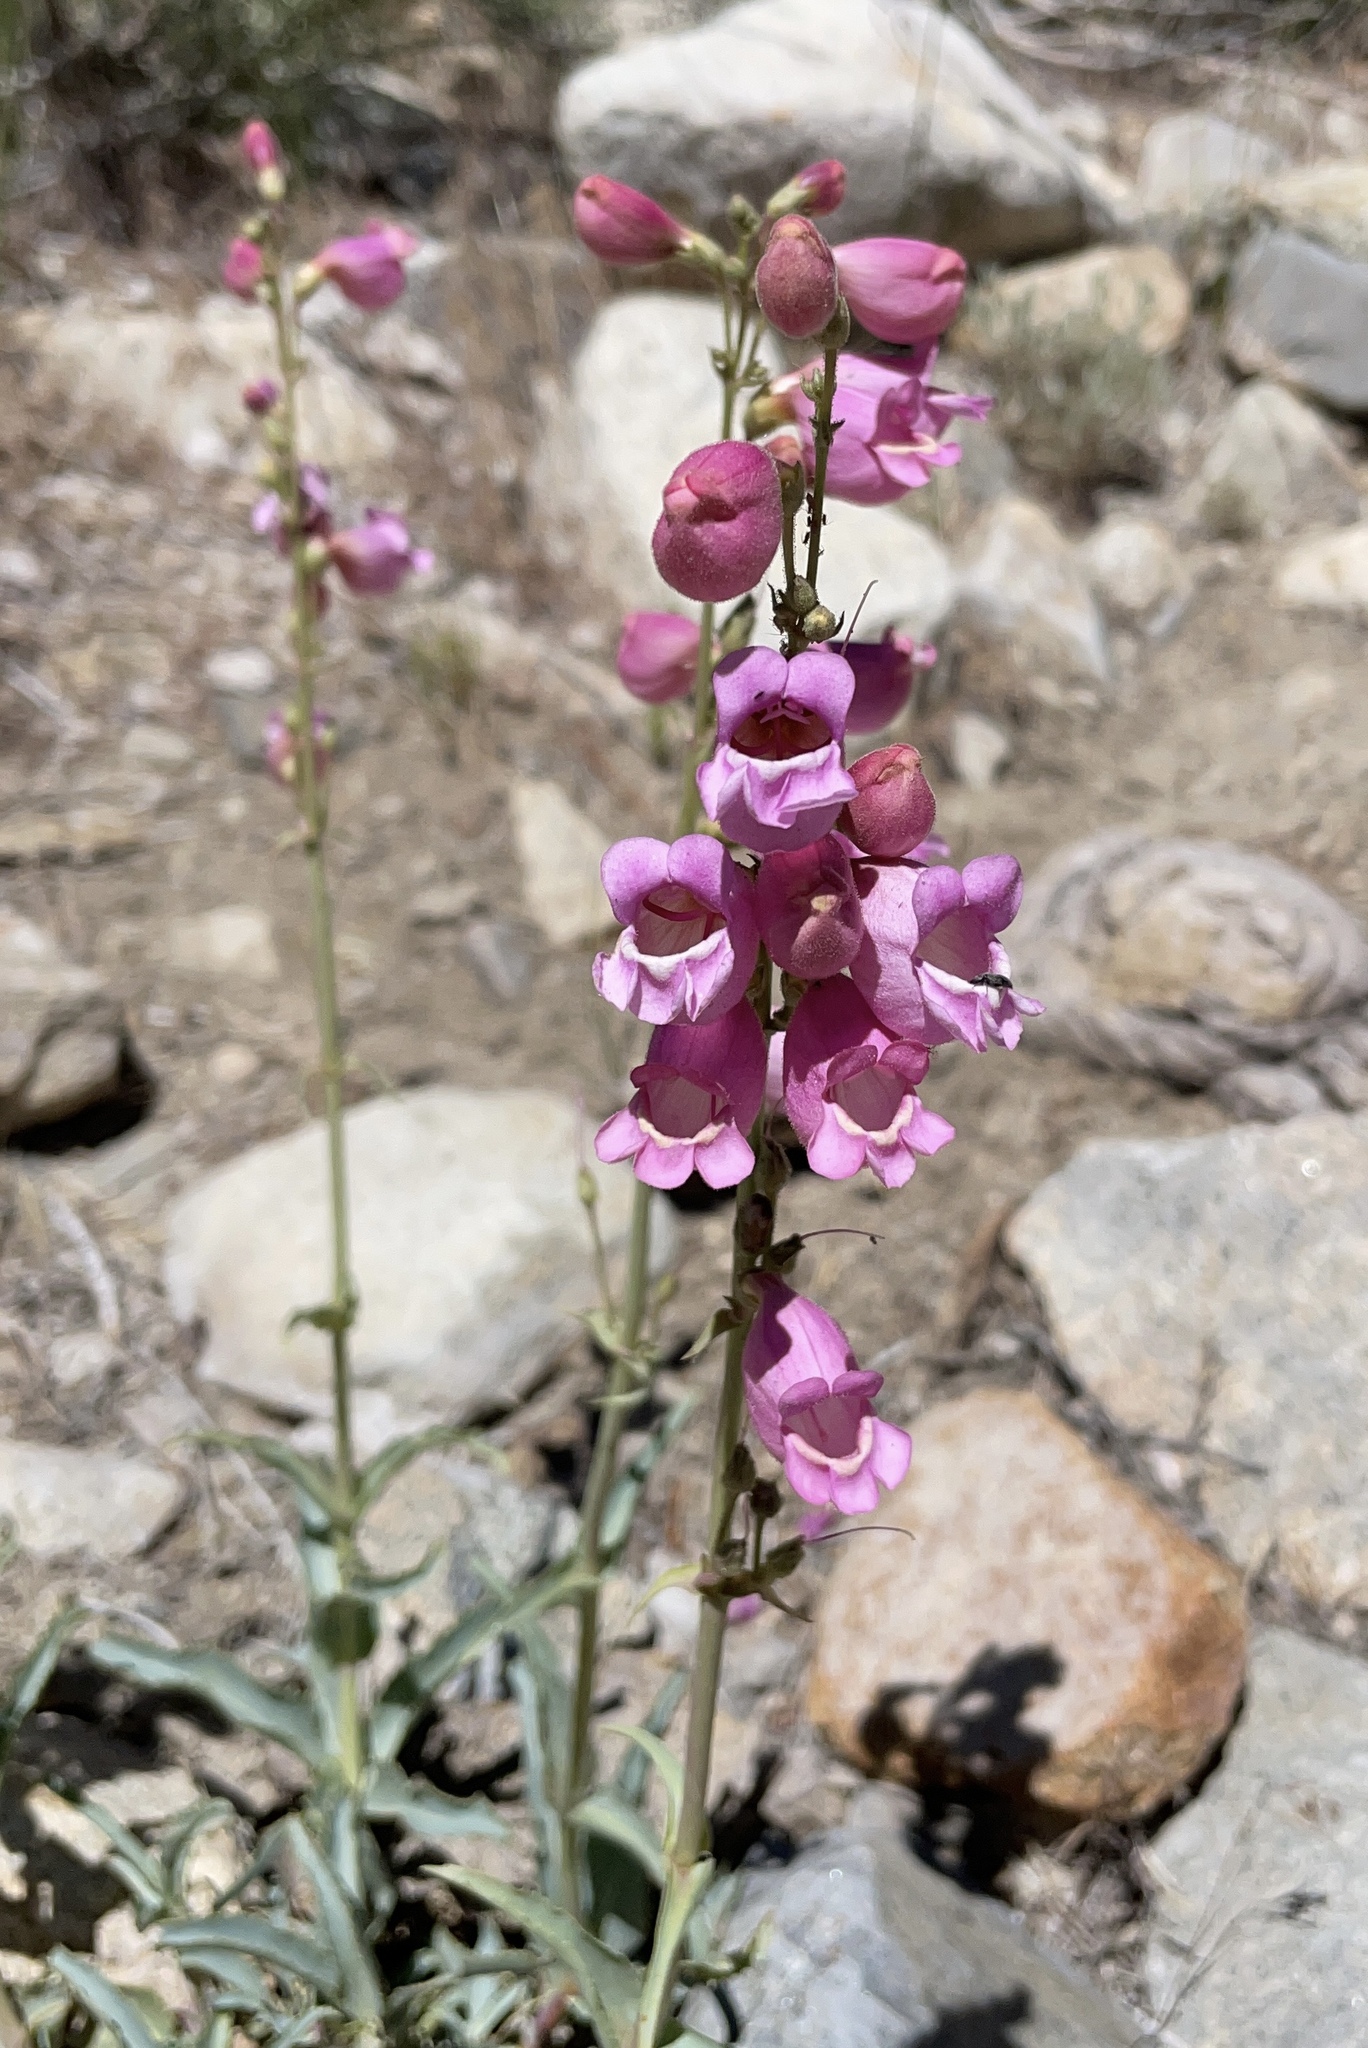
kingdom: Plantae
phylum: Tracheophyta
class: Magnoliopsida
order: Lamiales
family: Plantaginaceae
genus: Penstemon
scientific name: Penstemon floridus
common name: Panamint penstemon
